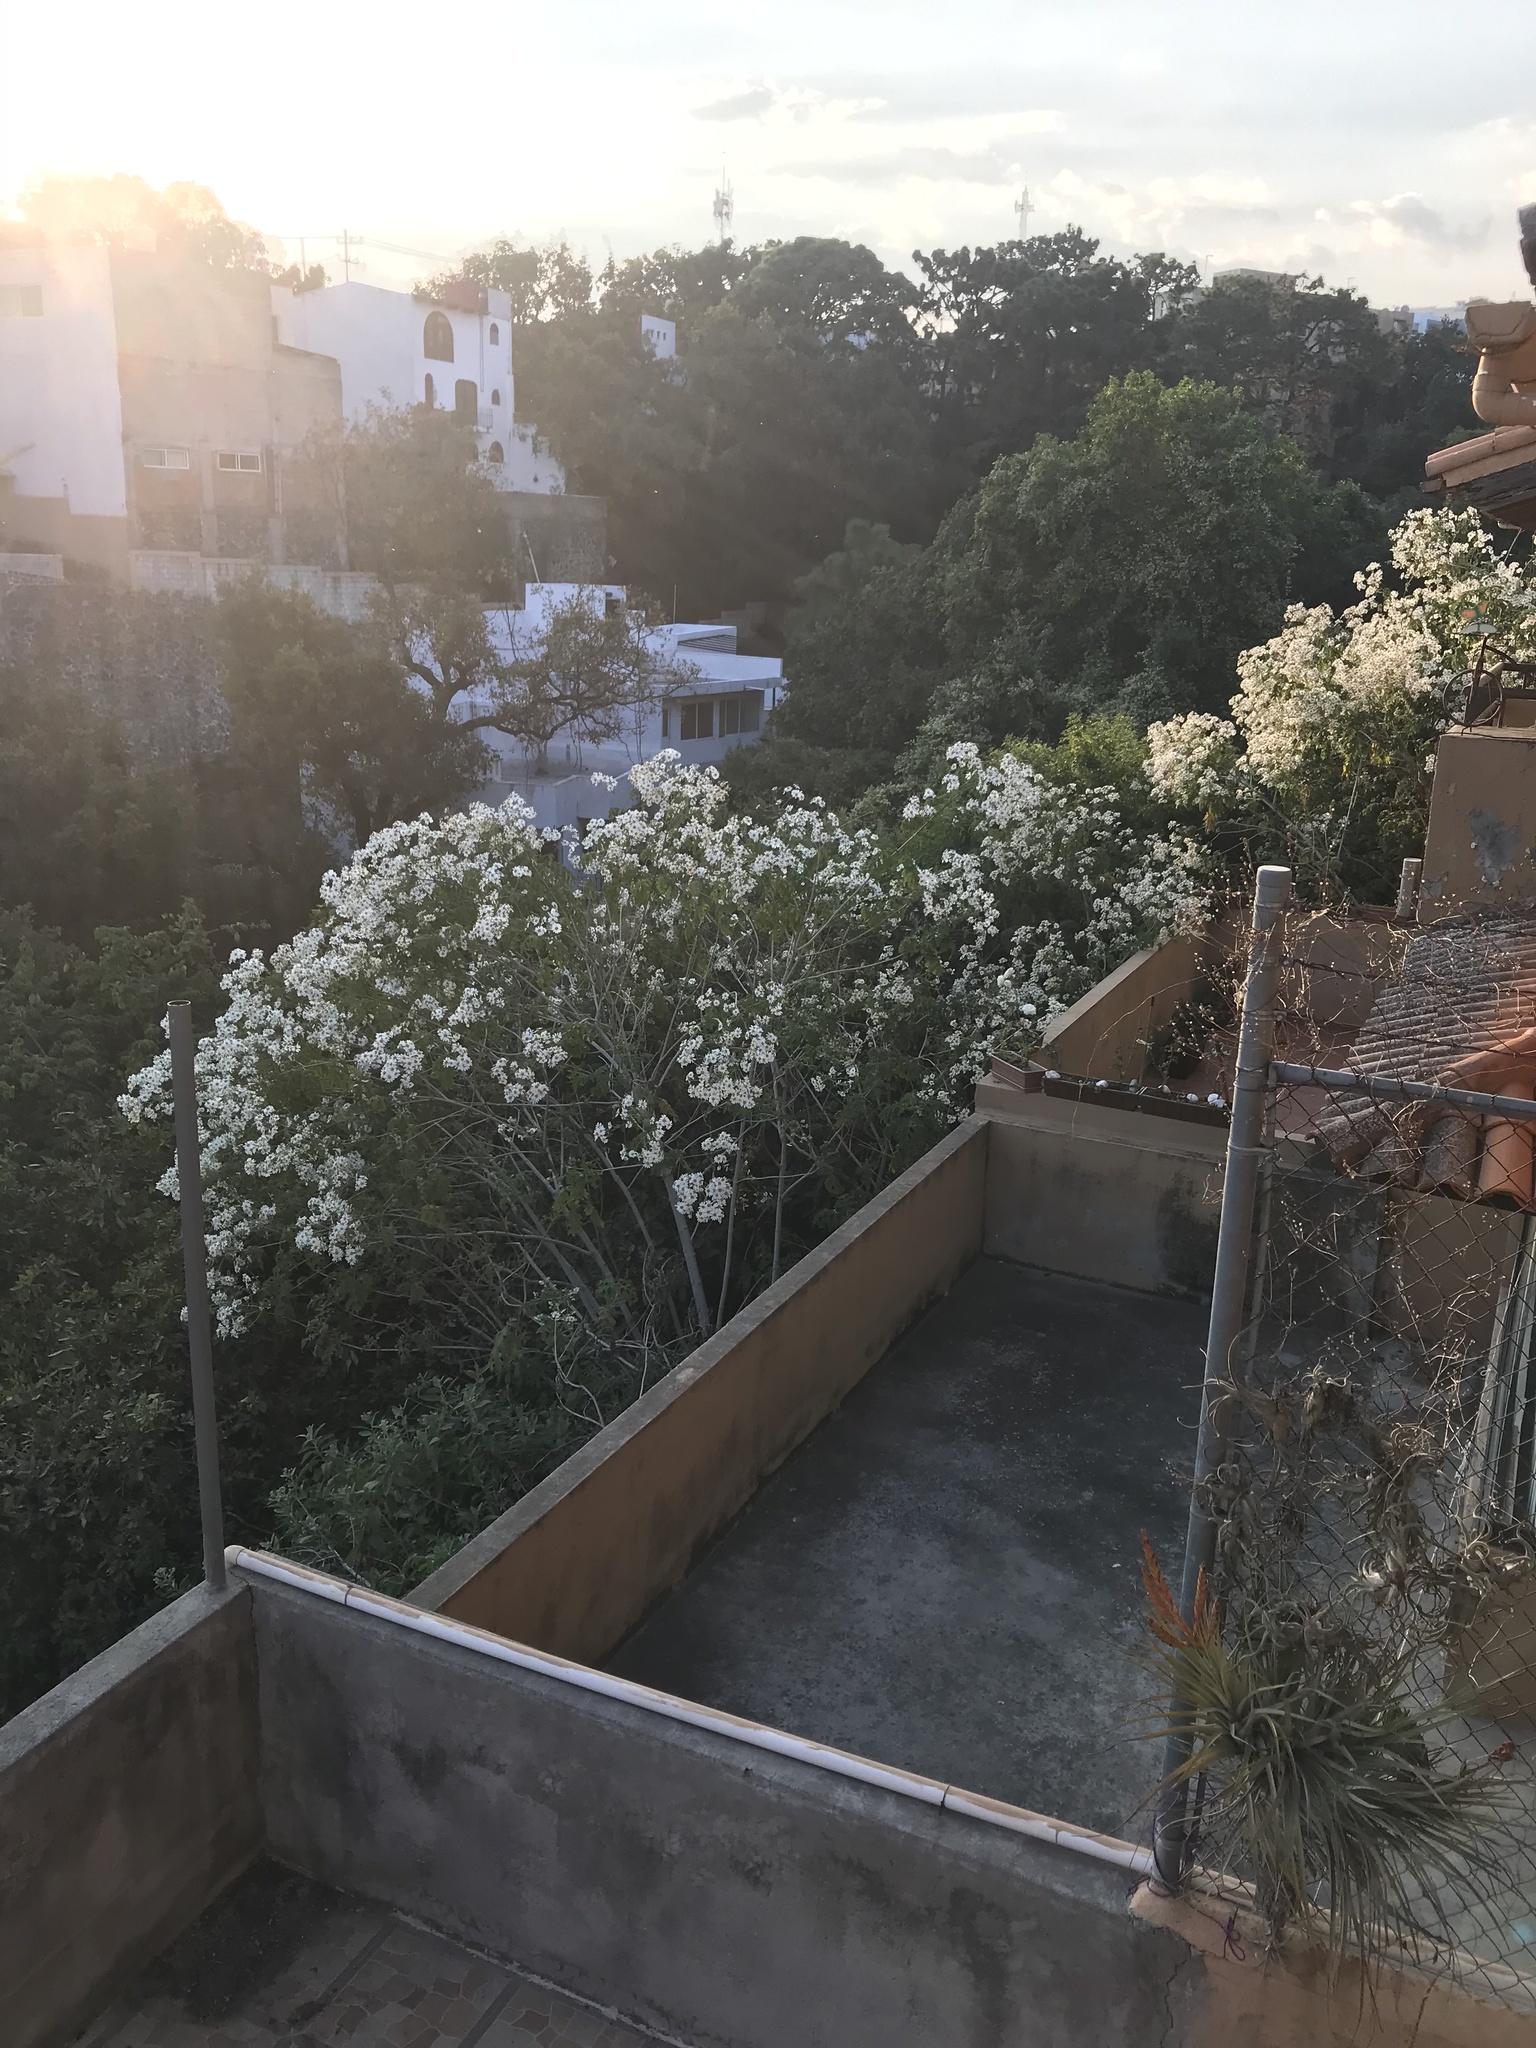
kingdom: Plantae
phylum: Tracheophyta
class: Magnoliopsida
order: Asterales
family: Asteraceae
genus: Montanoa
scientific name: Montanoa bipinnatifida
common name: Mexican daisy bush
